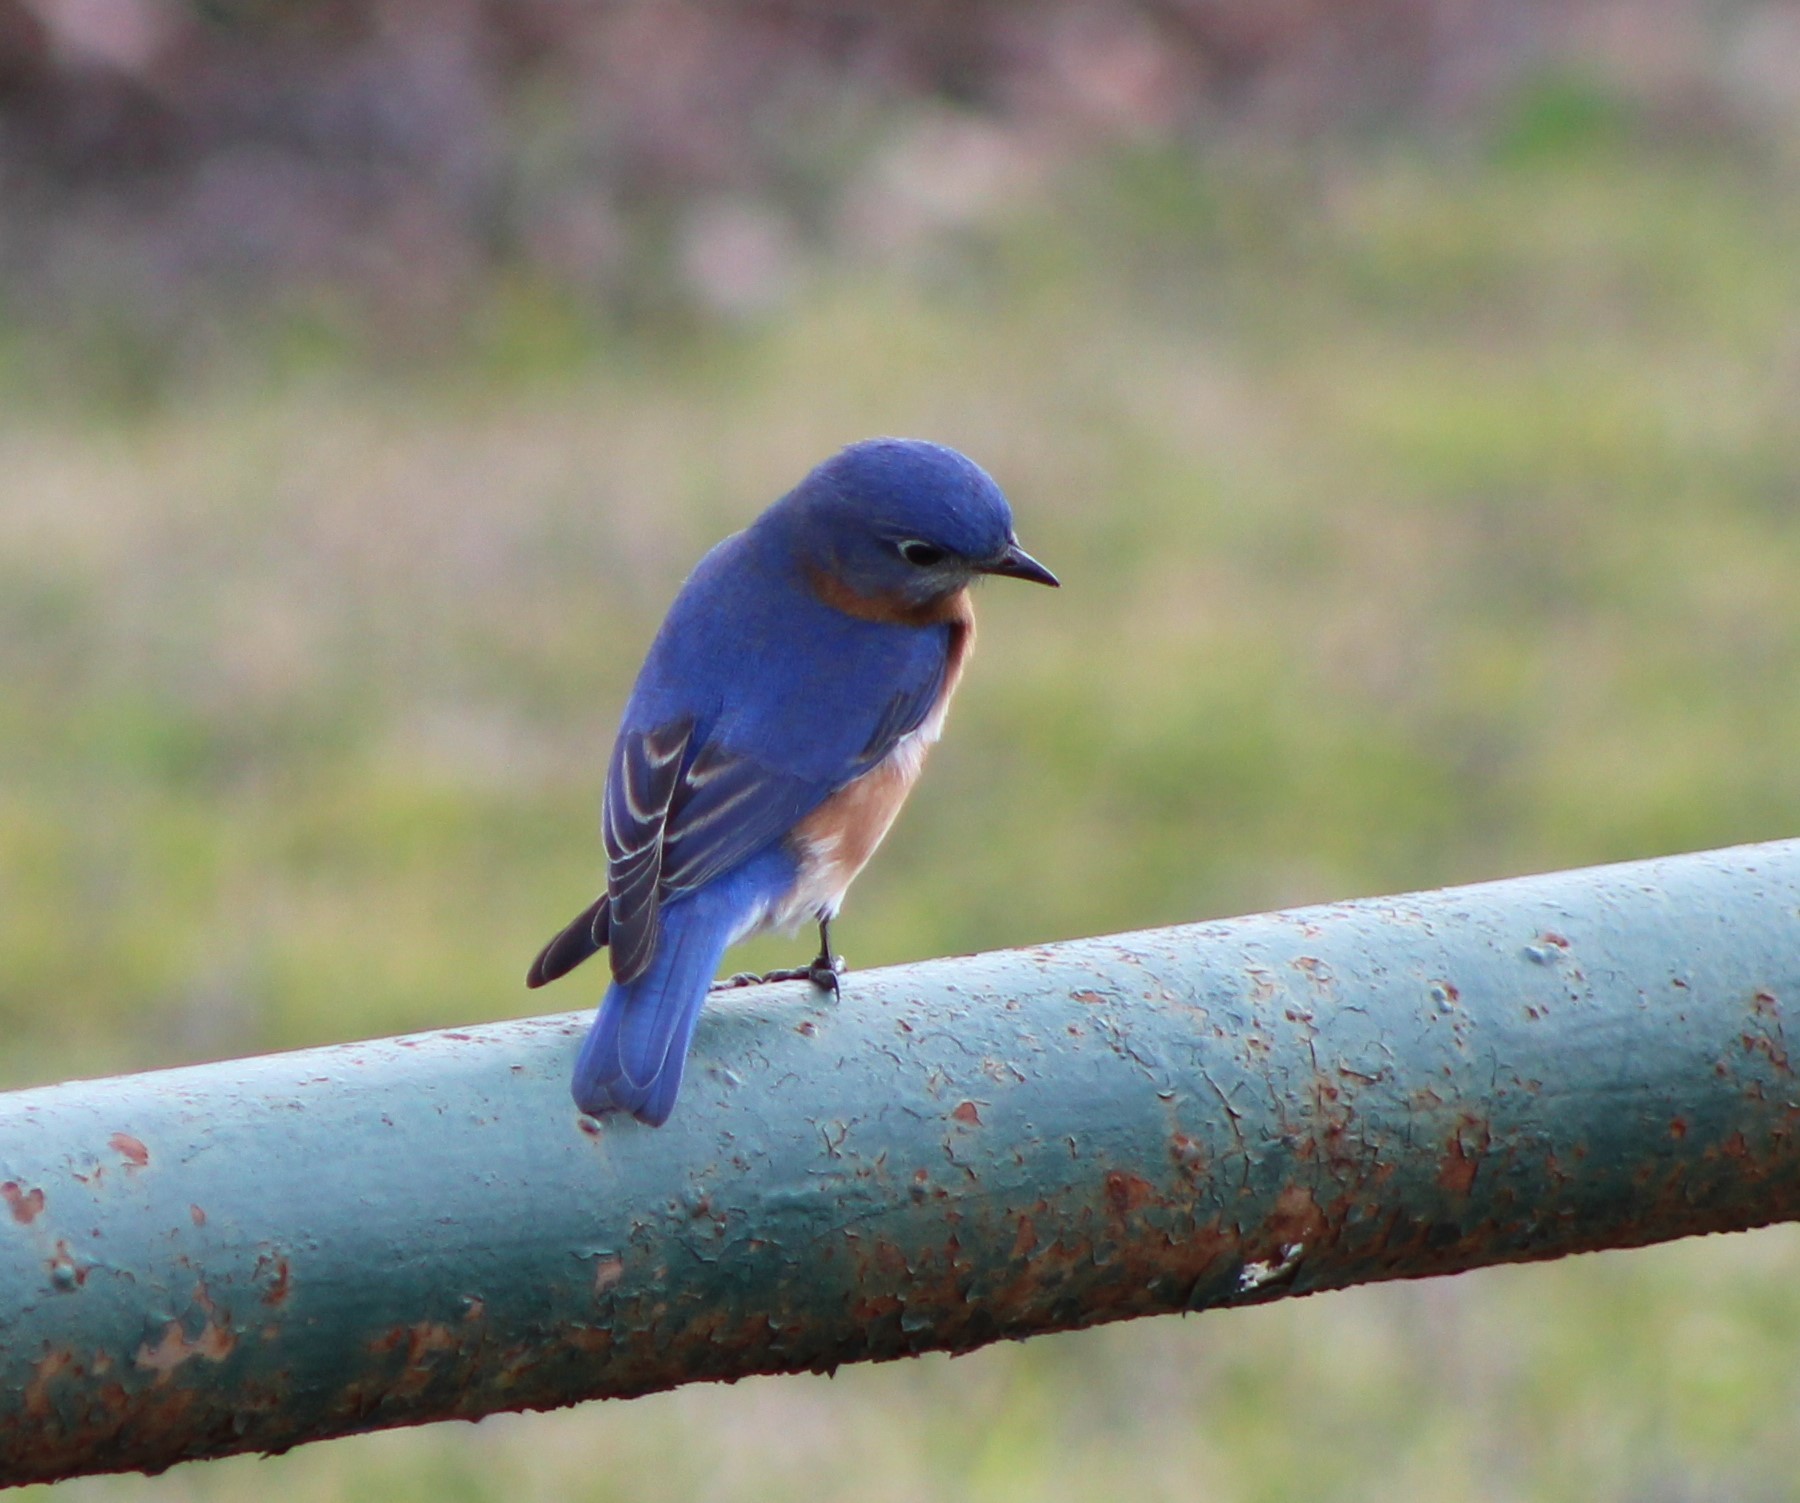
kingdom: Animalia
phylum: Chordata
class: Aves
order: Passeriformes
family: Turdidae
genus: Sialia
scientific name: Sialia sialis
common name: Eastern bluebird
